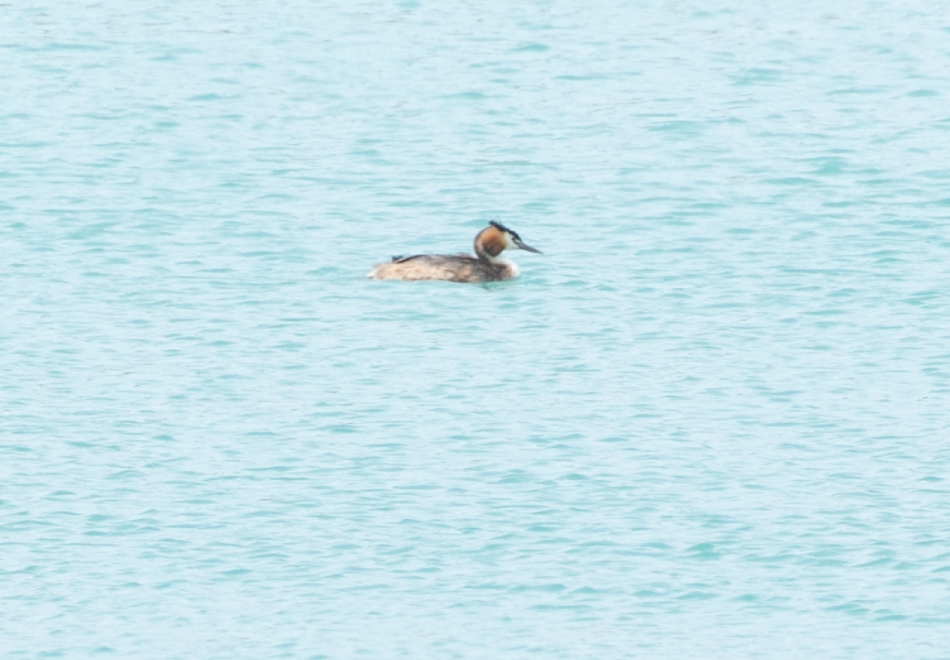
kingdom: Animalia
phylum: Chordata
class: Aves
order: Podicipediformes
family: Podicipedidae
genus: Podiceps
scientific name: Podiceps cristatus
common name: Great crested grebe
